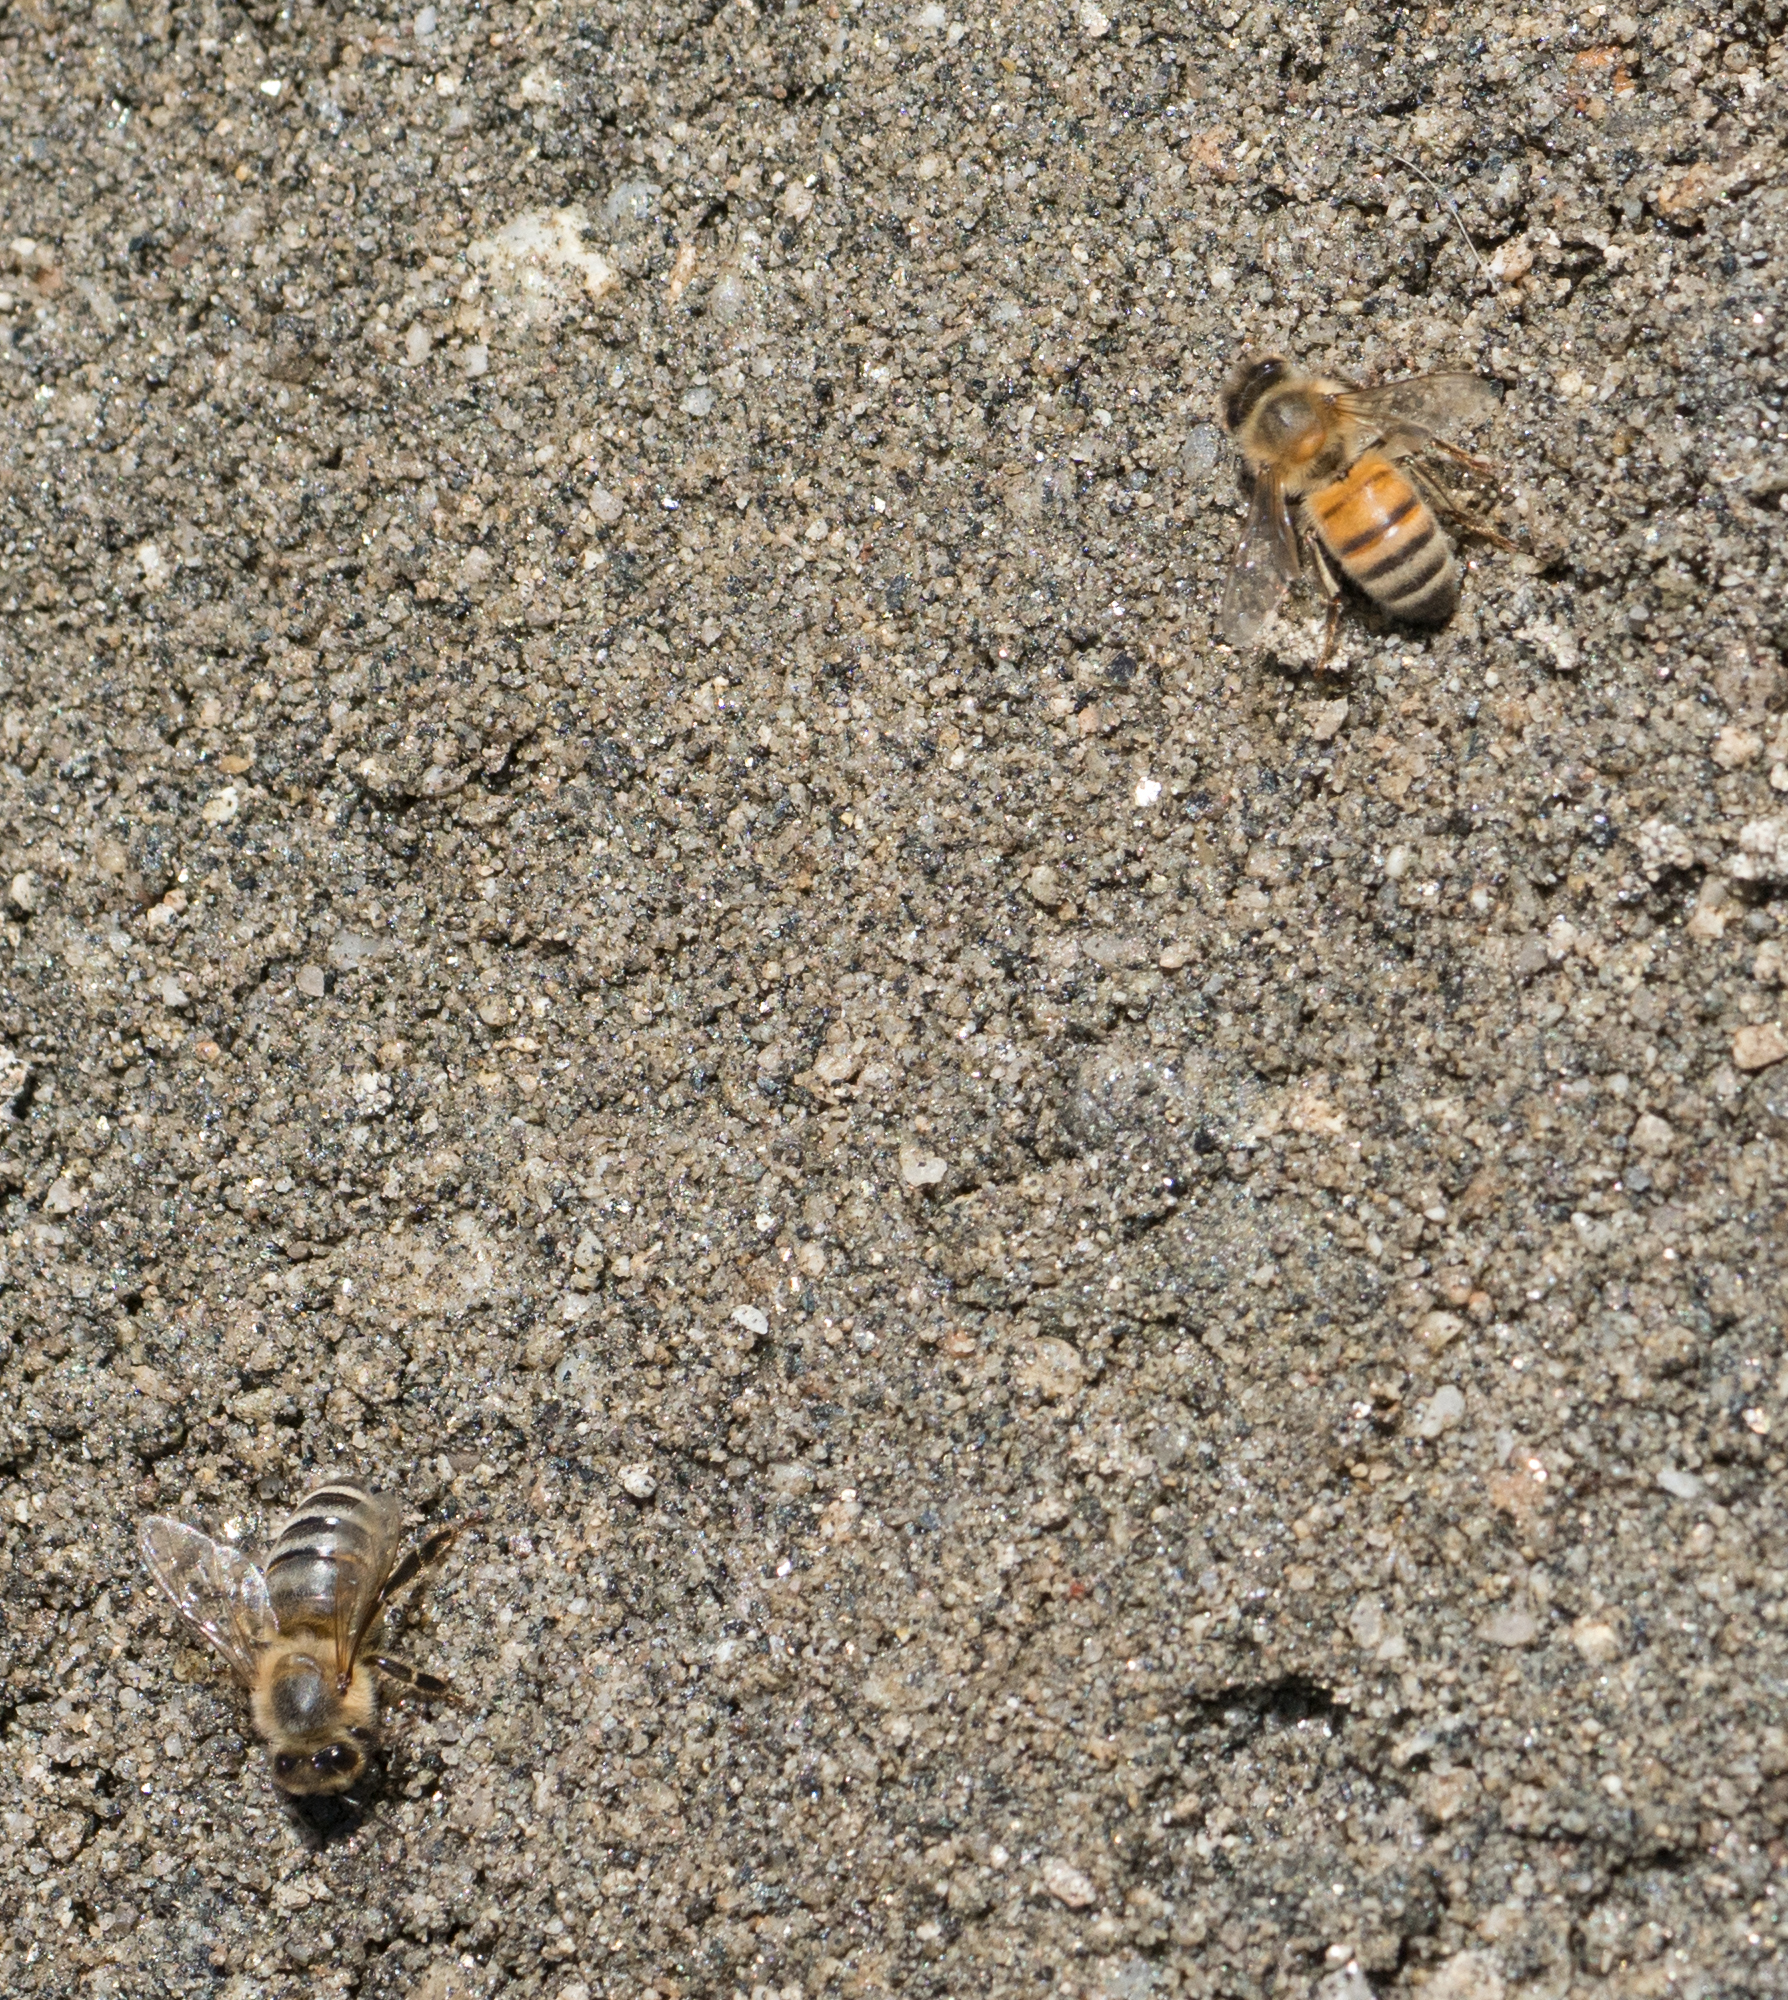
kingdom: Animalia
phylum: Arthropoda
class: Insecta
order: Hymenoptera
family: Apidae
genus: Apis
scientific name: Apis mellifera
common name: Honey bee
